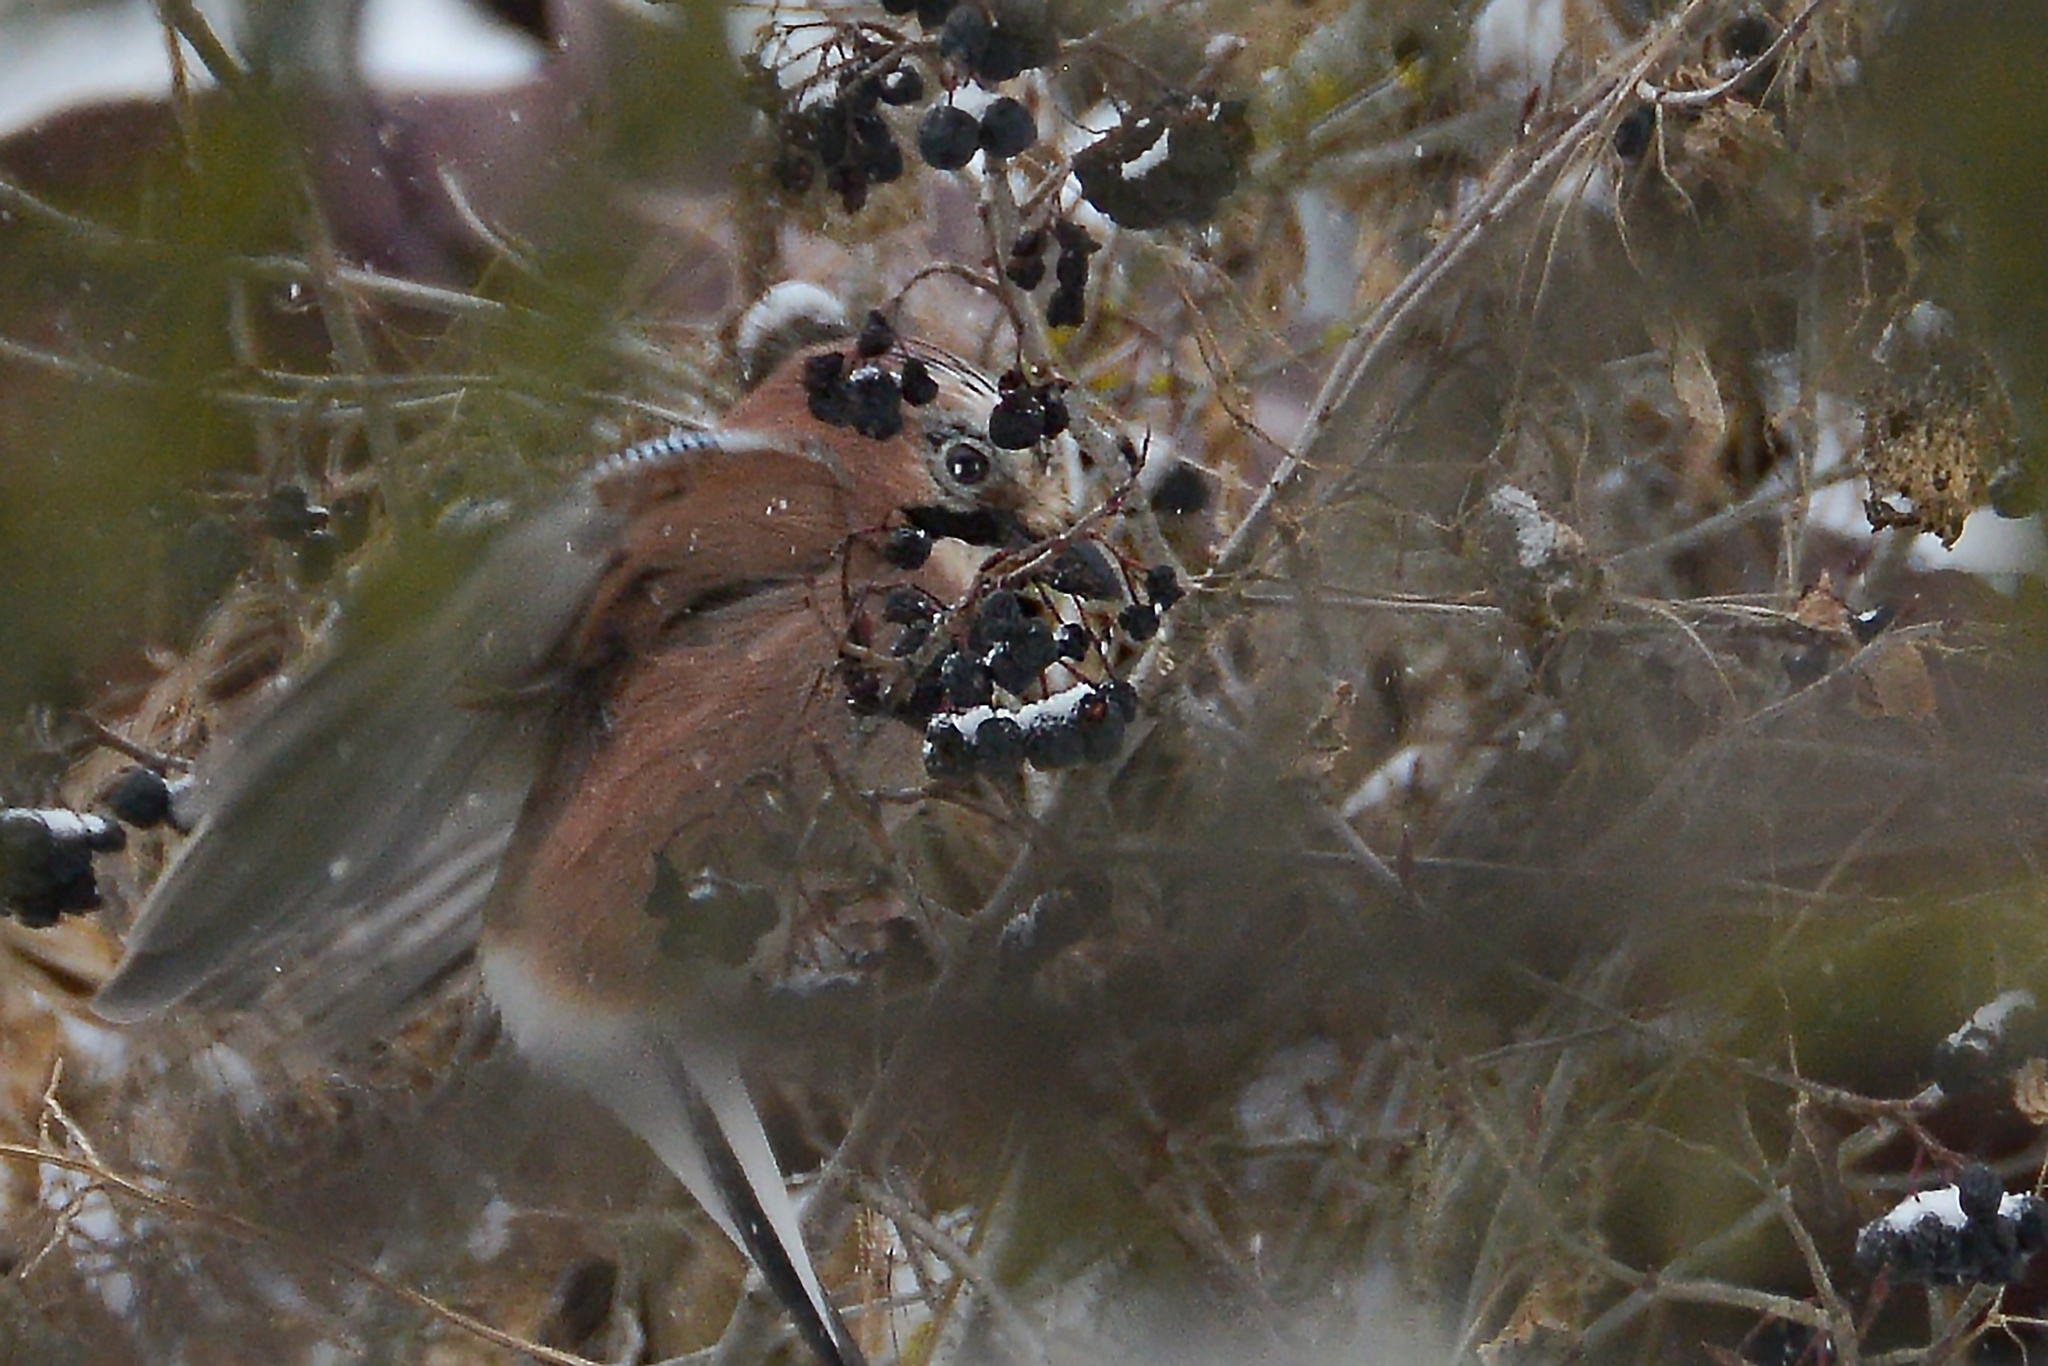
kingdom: Animalia
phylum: Chordata
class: Aves
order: Passeriformes
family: Corvidae
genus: Garrulus
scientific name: Garrulus glandarius
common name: Eurasian jay
